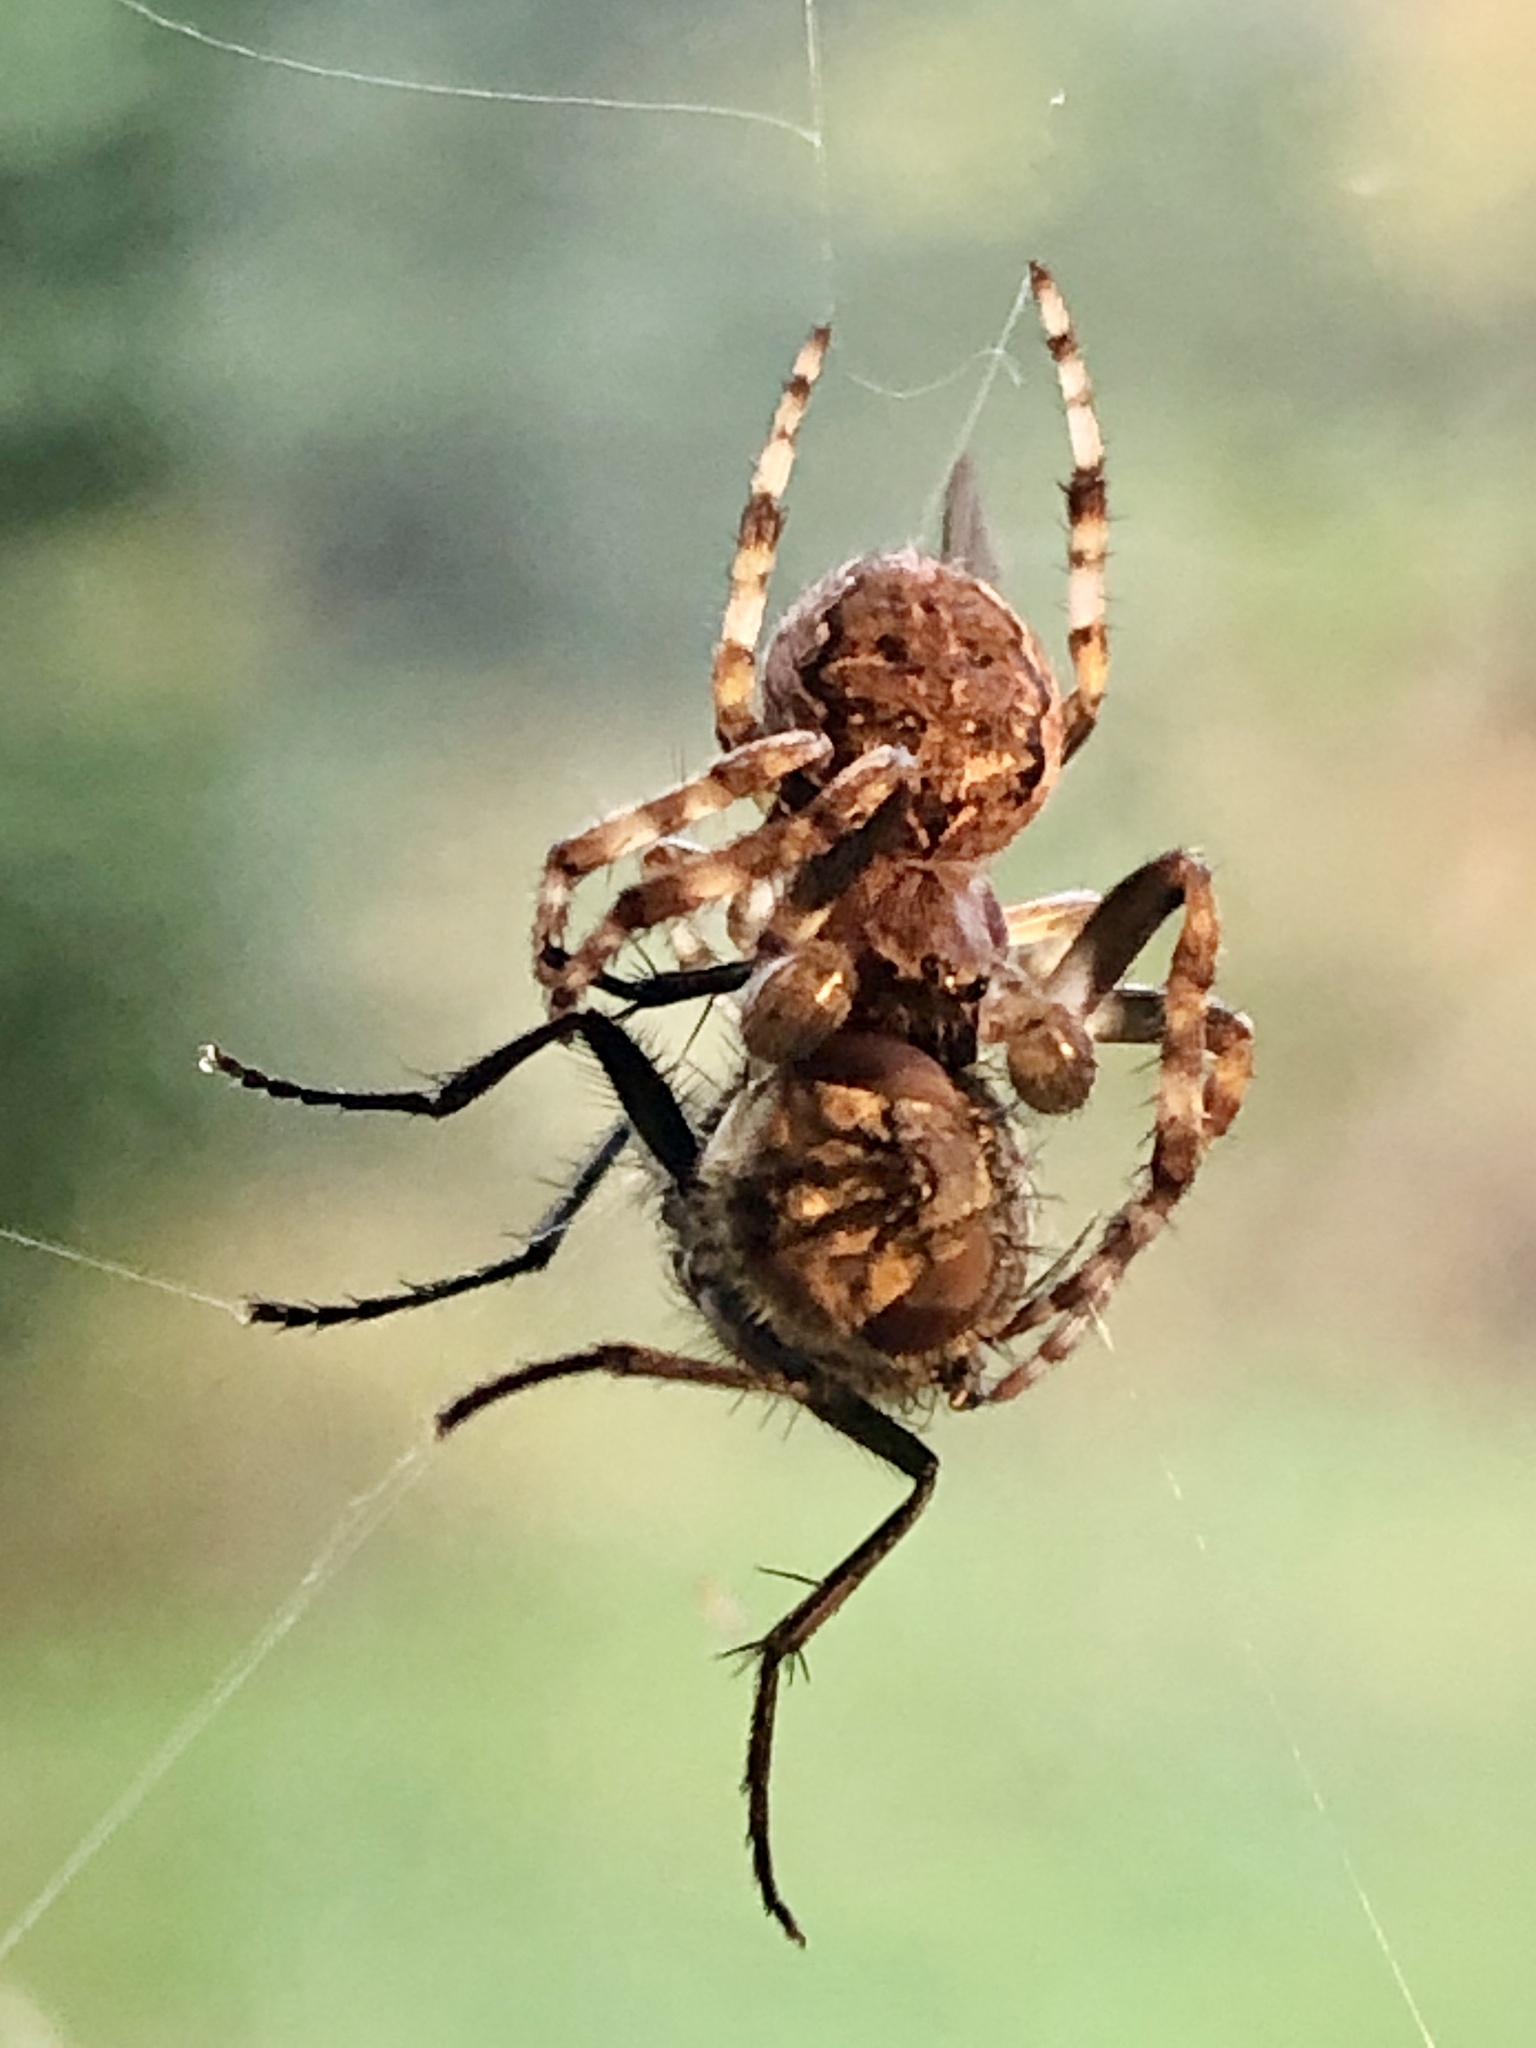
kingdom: Animalia
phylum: Arthropoda
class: Arachnida
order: Araneae
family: Araneidae
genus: Larinioides
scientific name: Larinioides sclopetarius
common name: Bridge orbweaver
